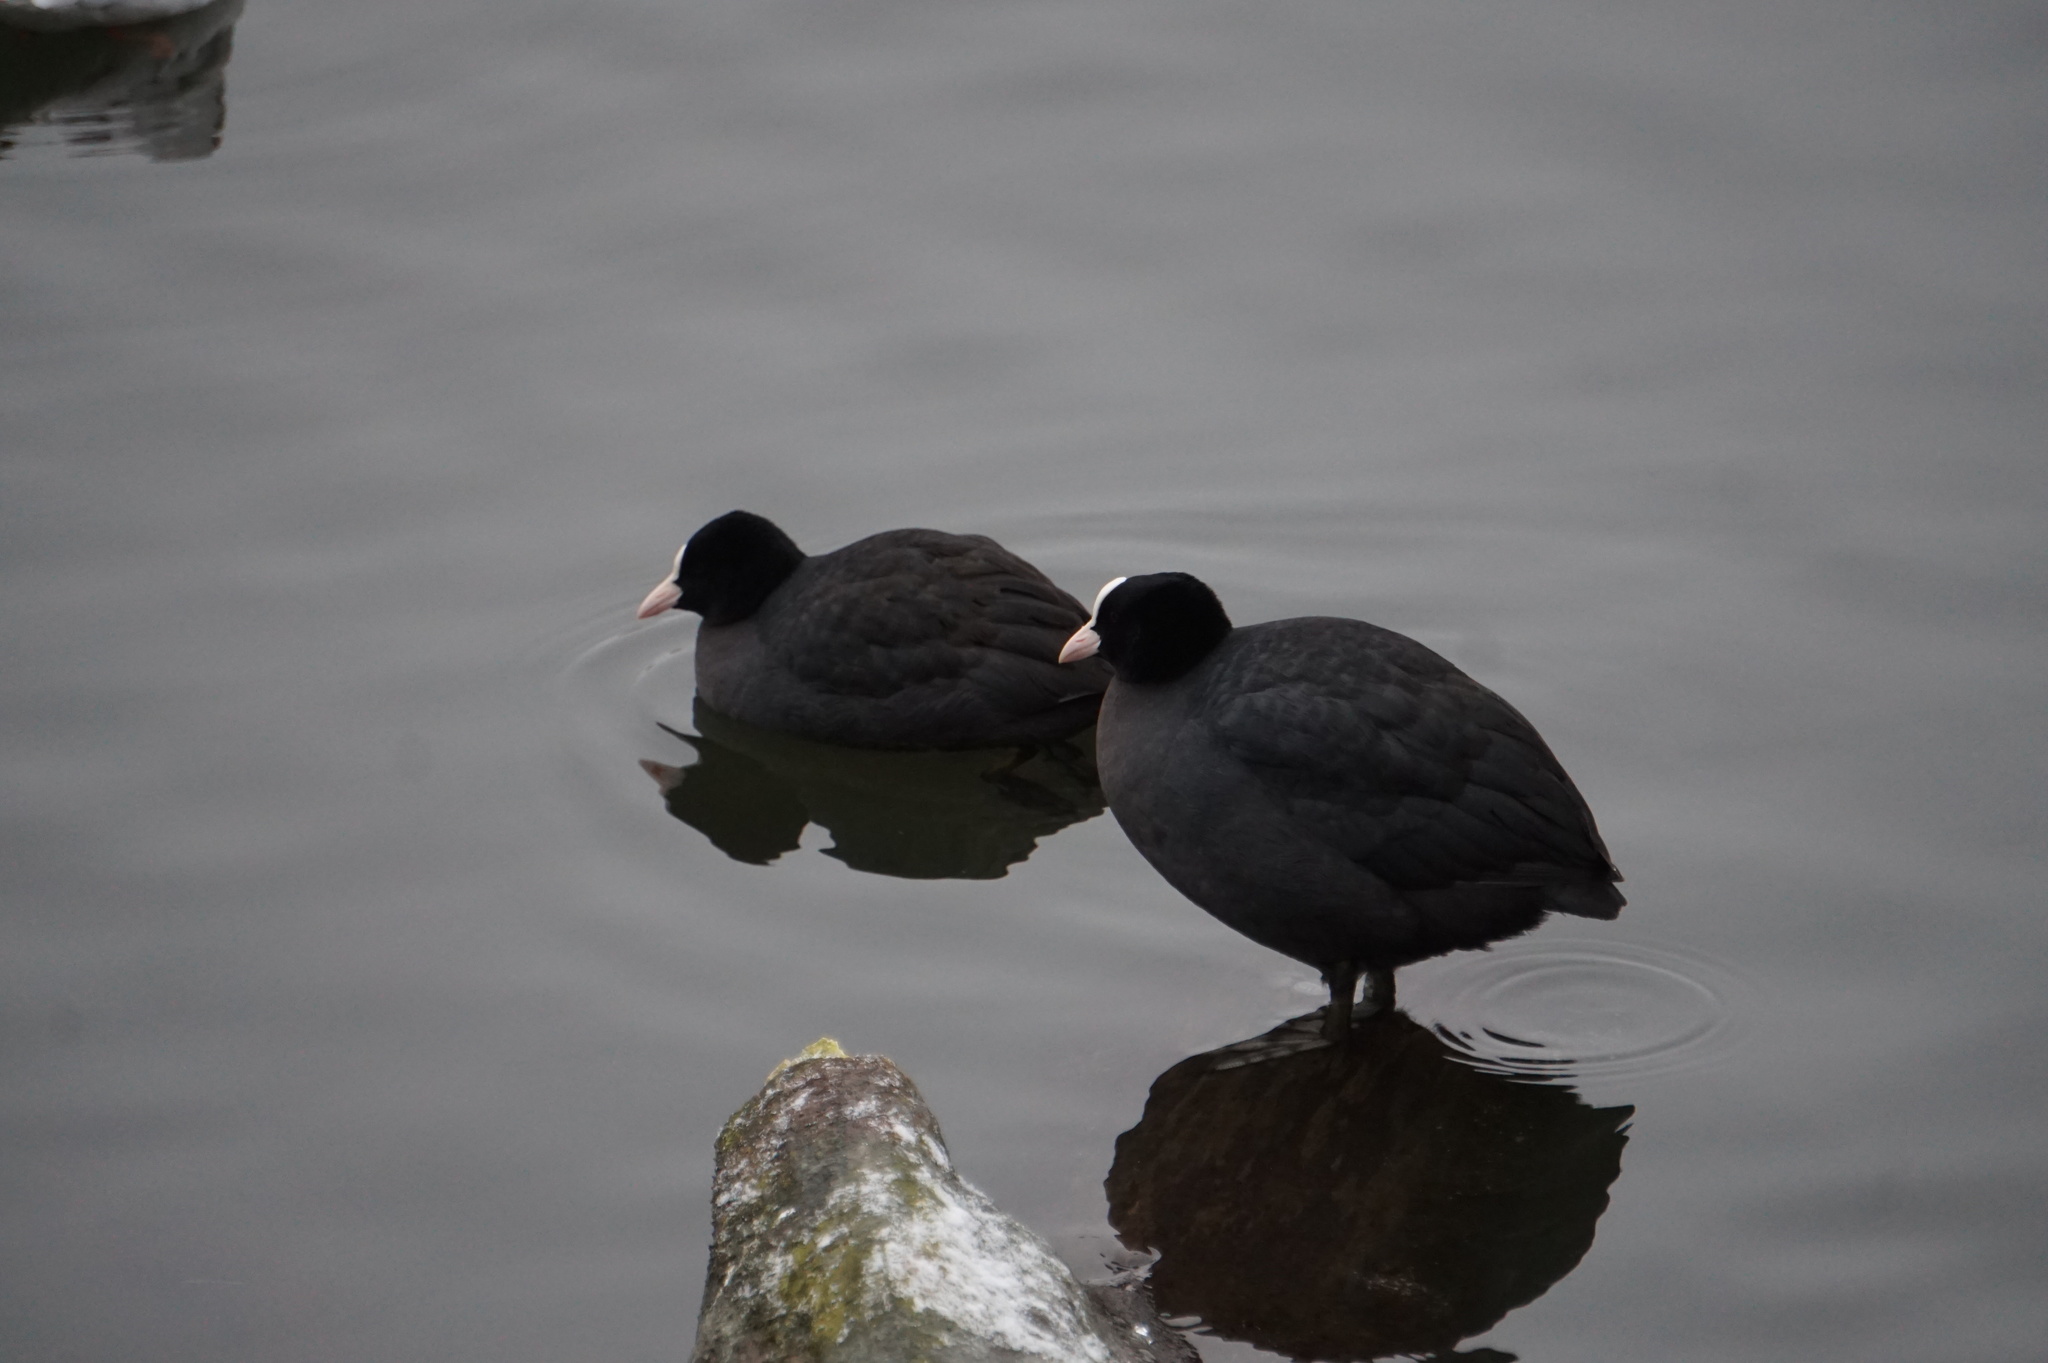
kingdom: Animalia
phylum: Chordata
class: Aves
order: Gruiformes
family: Rallidae
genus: Fulica
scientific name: Fulica atra
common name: Eurasian coot
